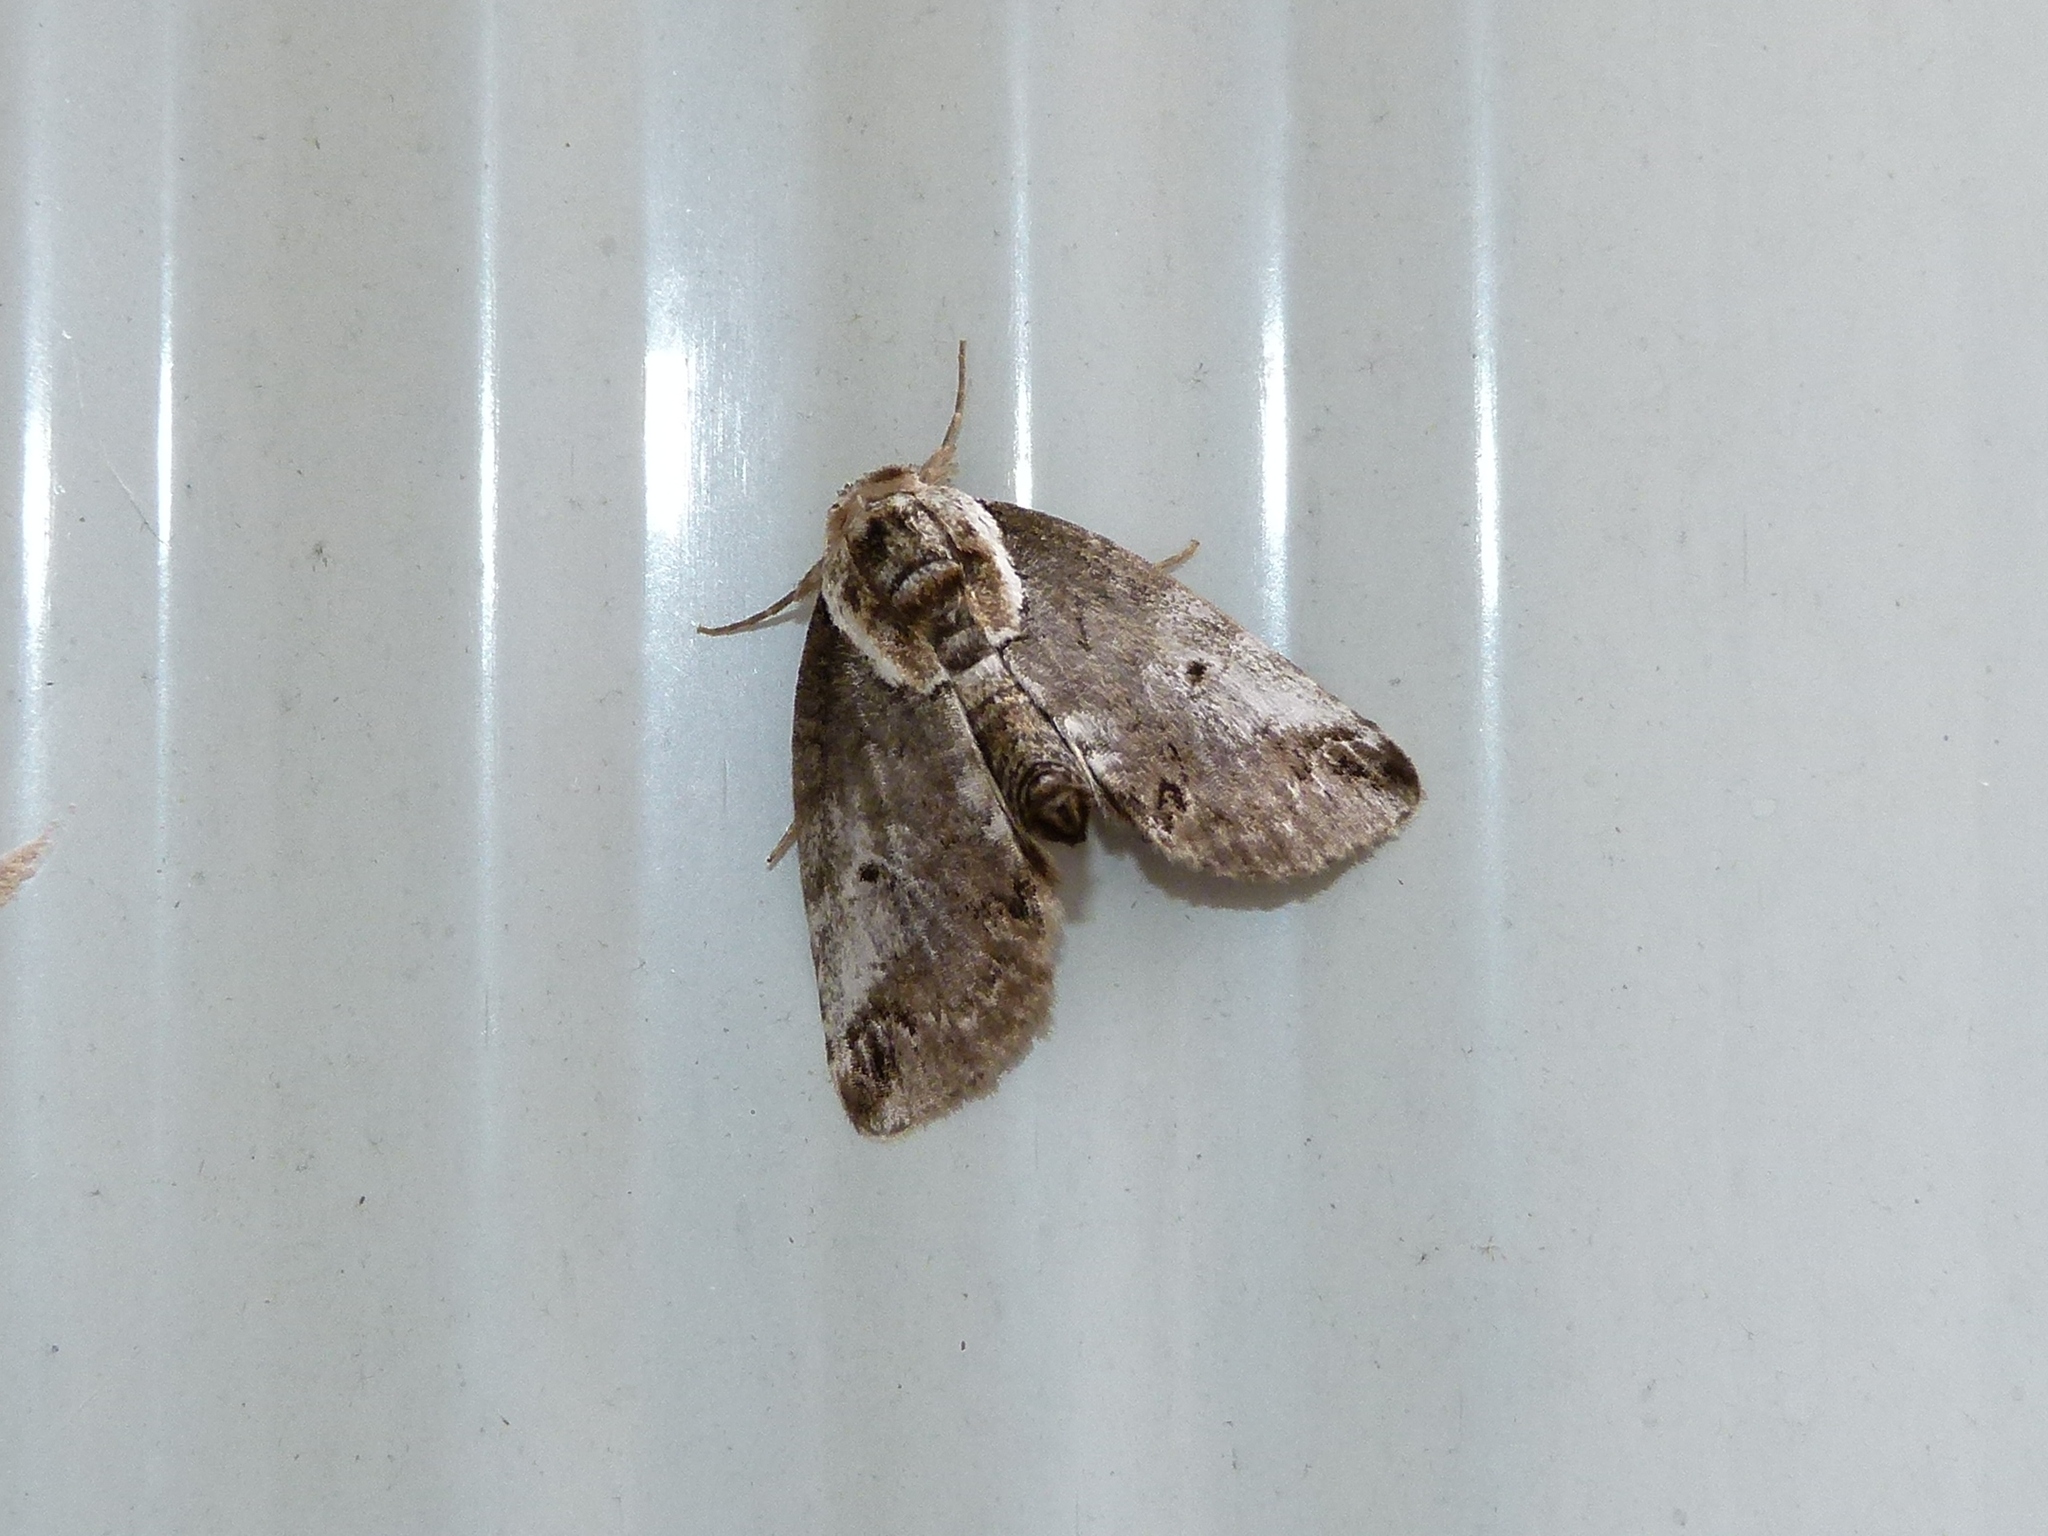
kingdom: Animalia
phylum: Arthropoda
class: Insecta
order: Lepidoptera
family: Nolidae
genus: Baileya
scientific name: Baileya ophthalmica
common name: Eyed baileya moth
